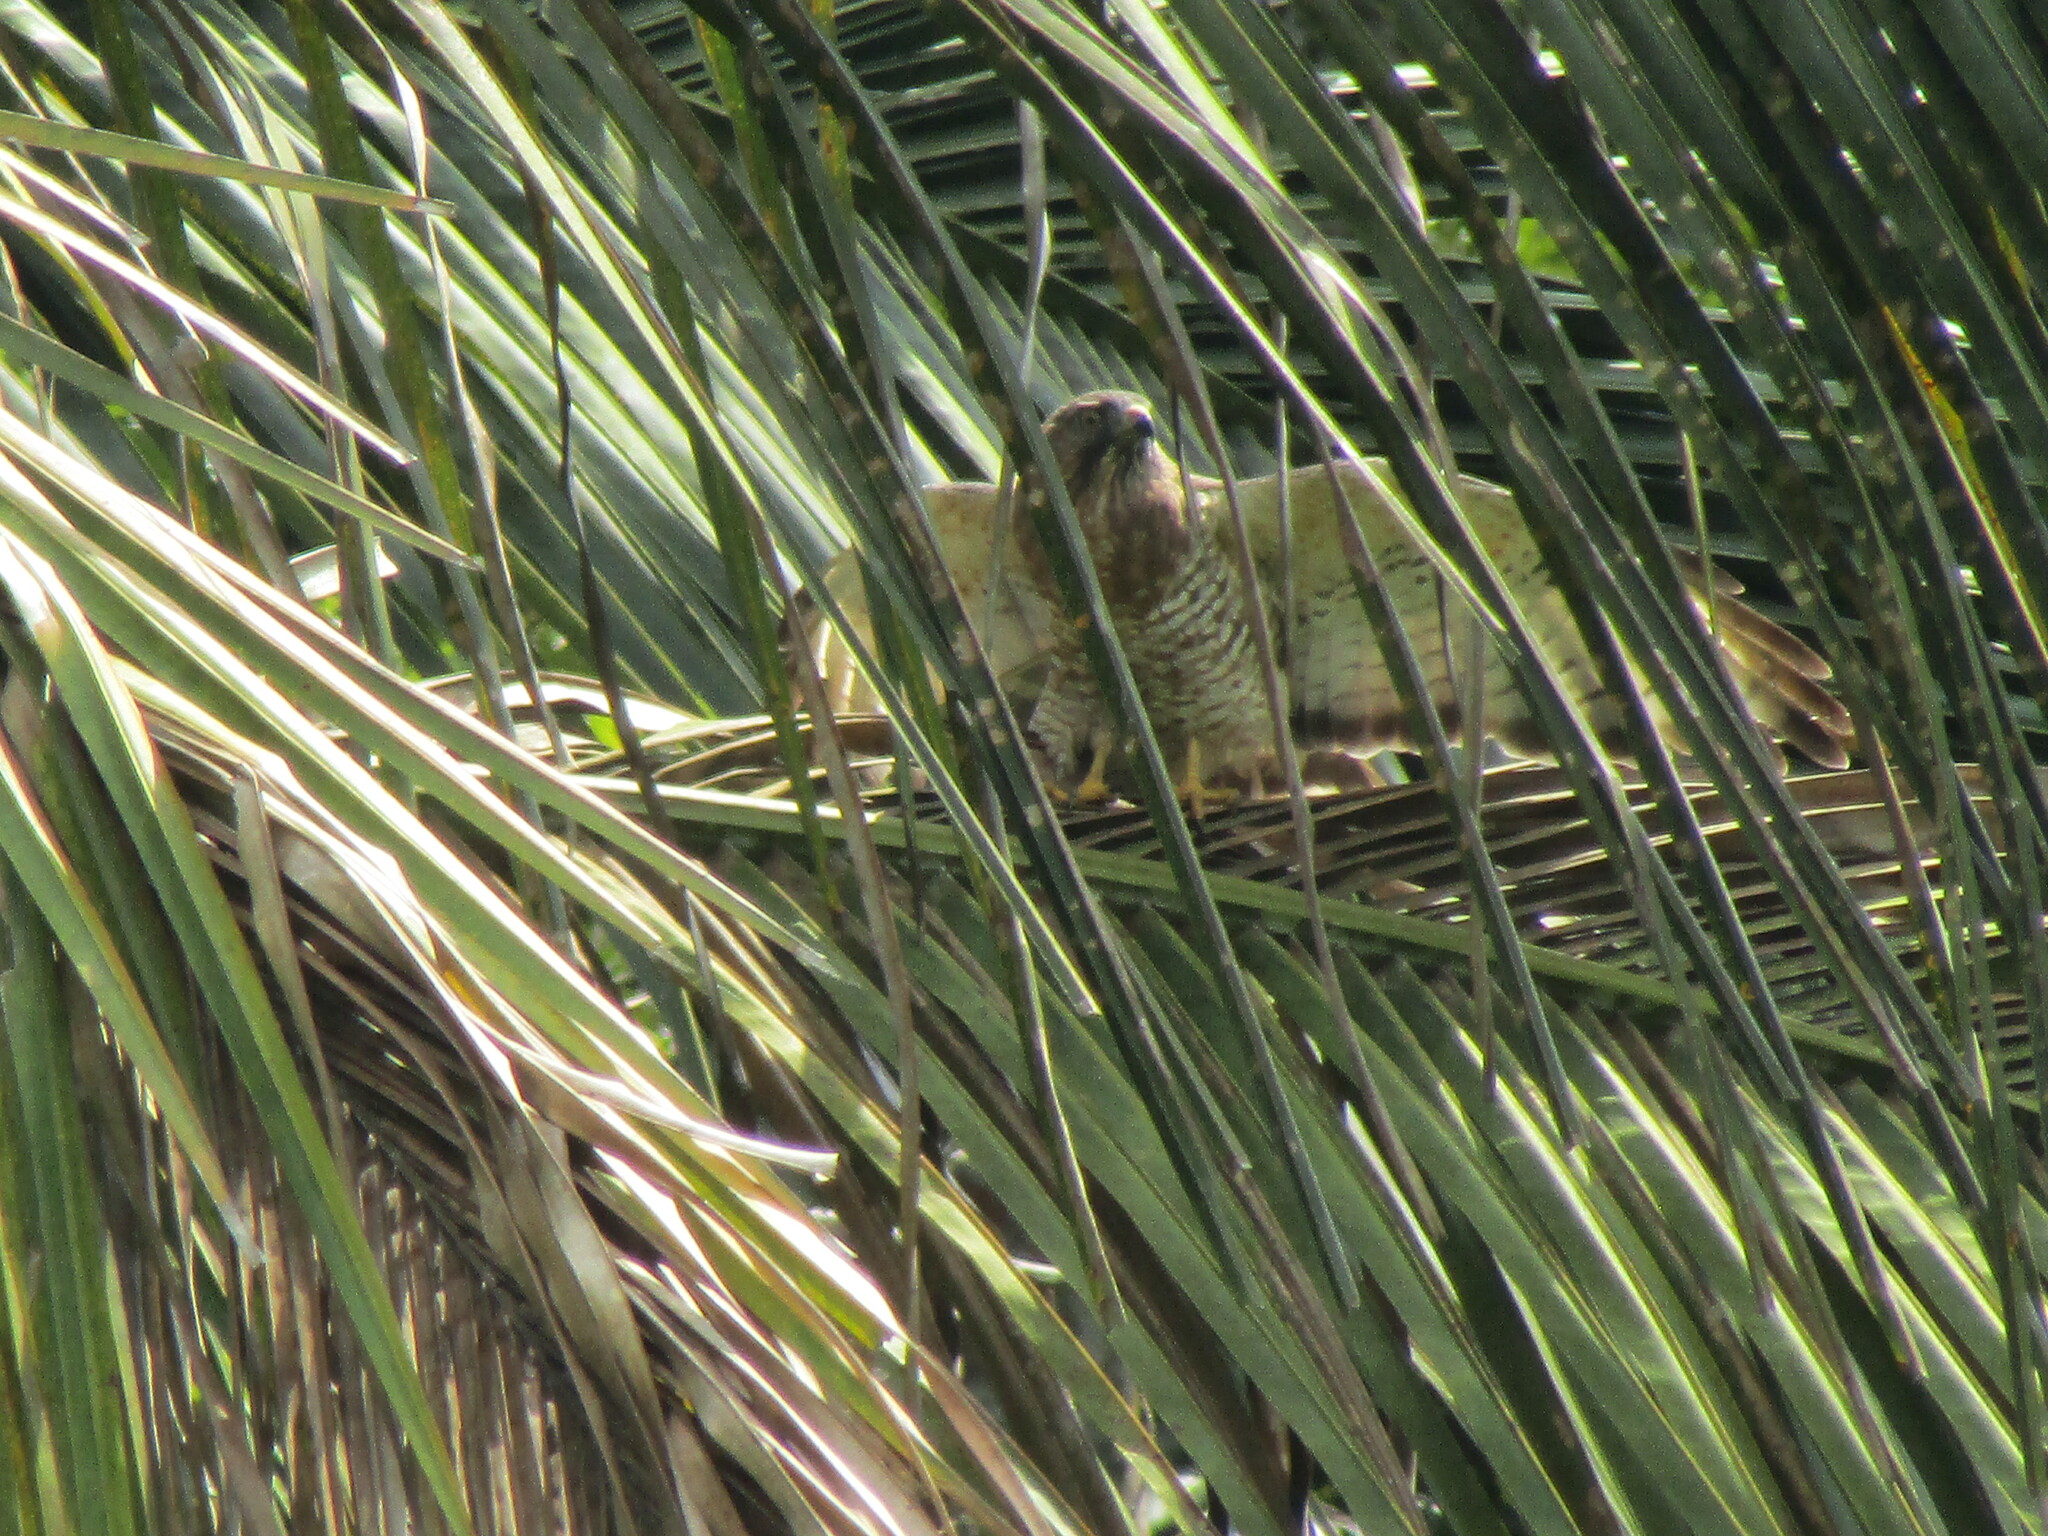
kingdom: Animalia
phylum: Chordata
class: Aves
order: Accipitriformes
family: Accipitridae
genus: Buteo
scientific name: Buteo platypterus
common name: Broad-winged hawk
